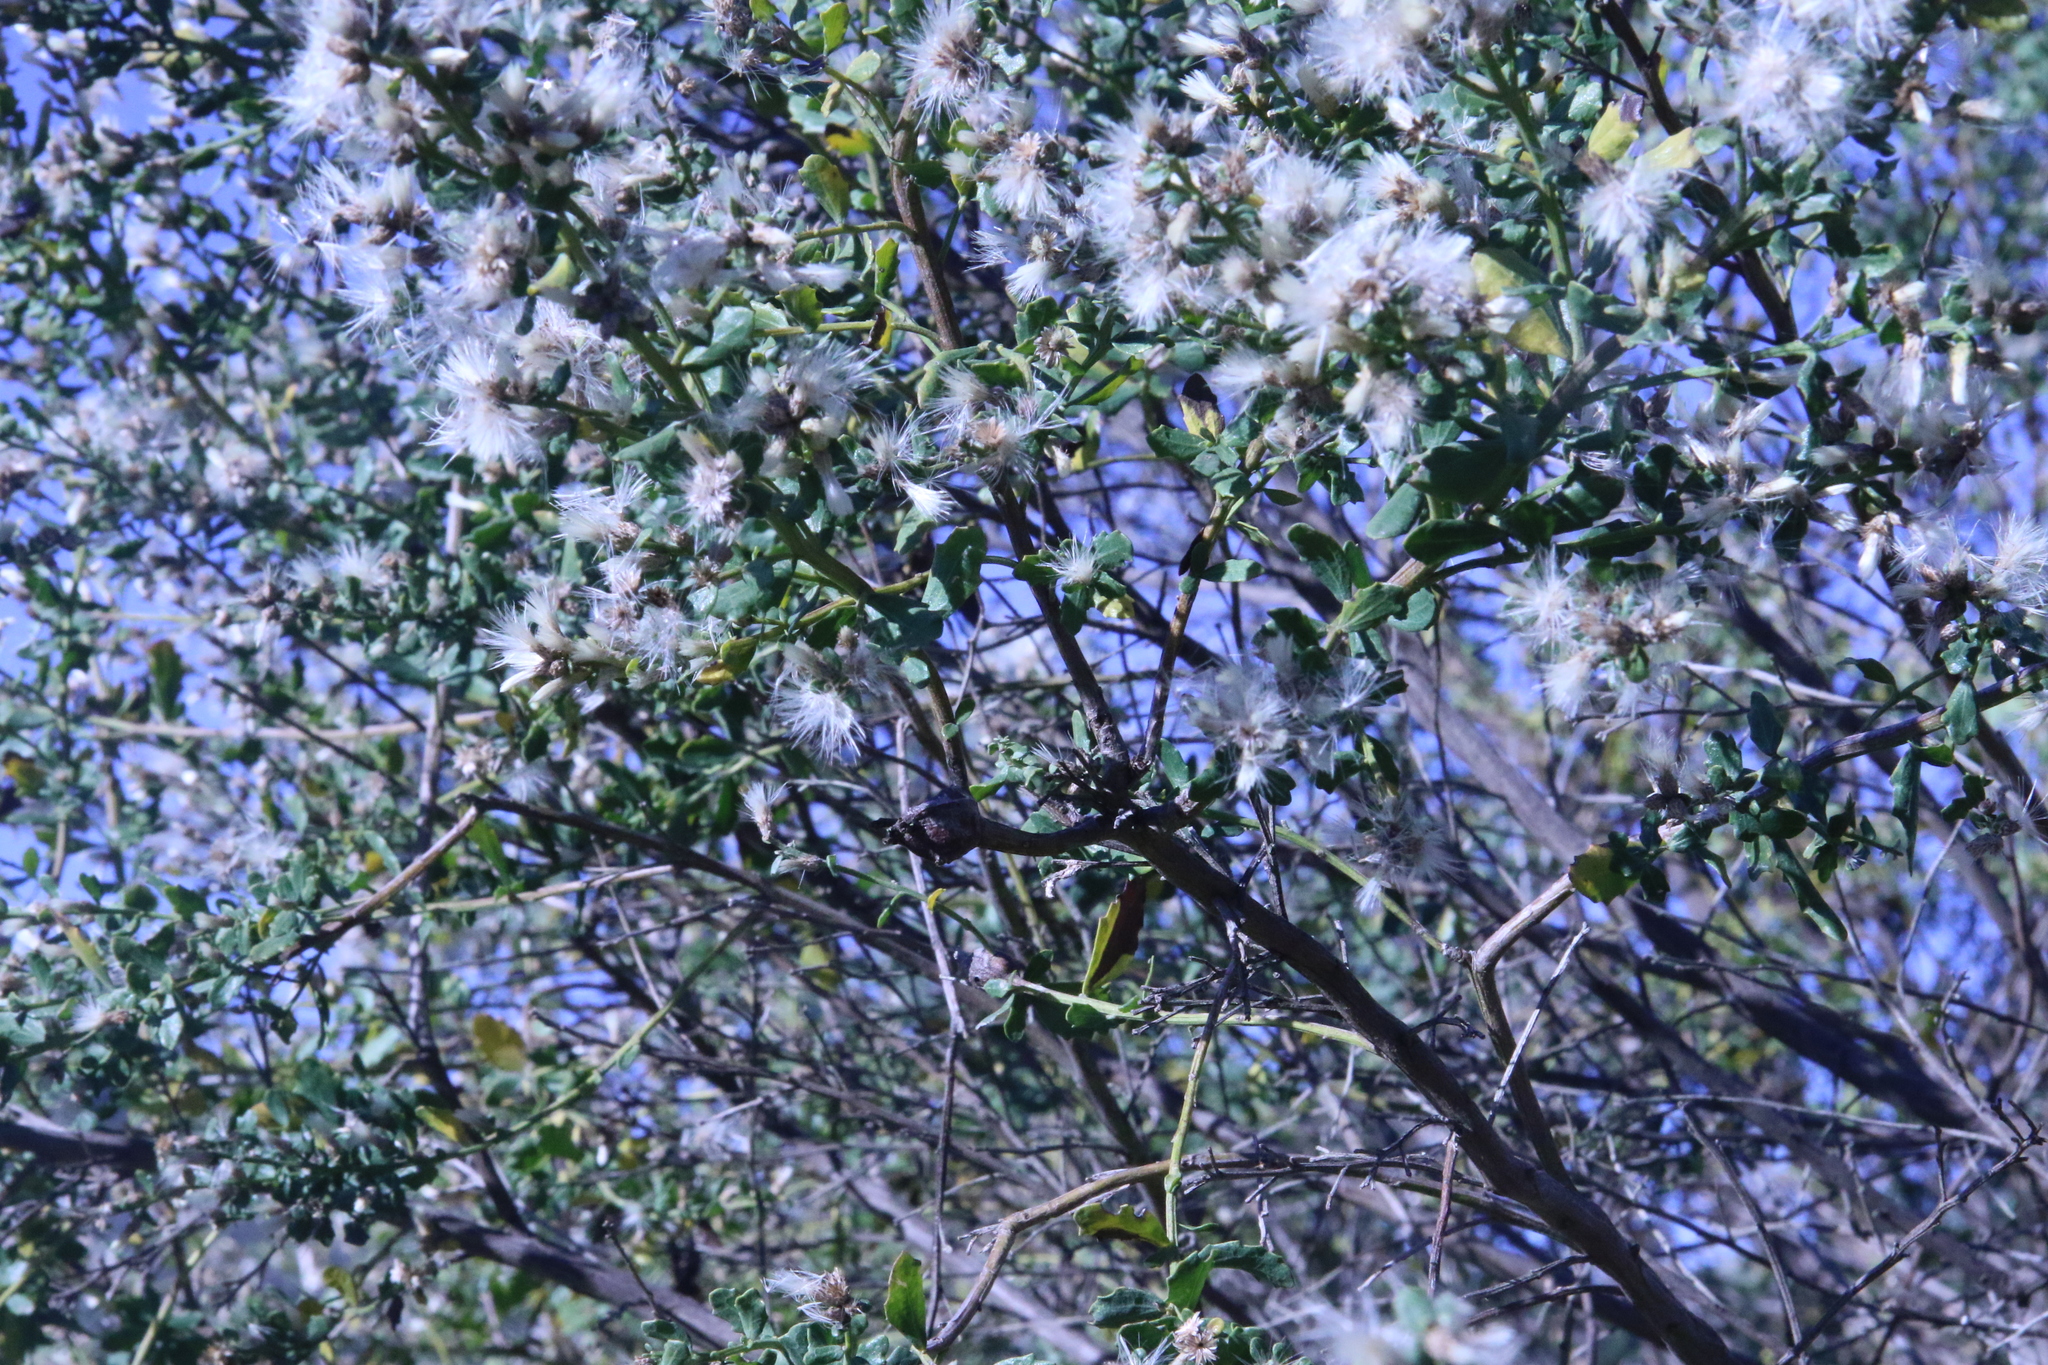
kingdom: Plantae
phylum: Tracheophyta
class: Magnoliopsida
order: Asterales
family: Asteraceae
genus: Baccharis
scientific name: Baccharis pilularis
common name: Coyotebrush
